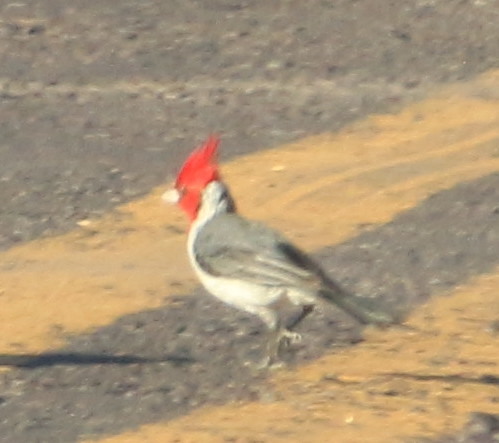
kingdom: Animalia
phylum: Chordata
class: Aves
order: Passeriformes
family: Thraupidae
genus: Paroaria
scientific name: Paroaria coronata
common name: Red-crested cardinal
